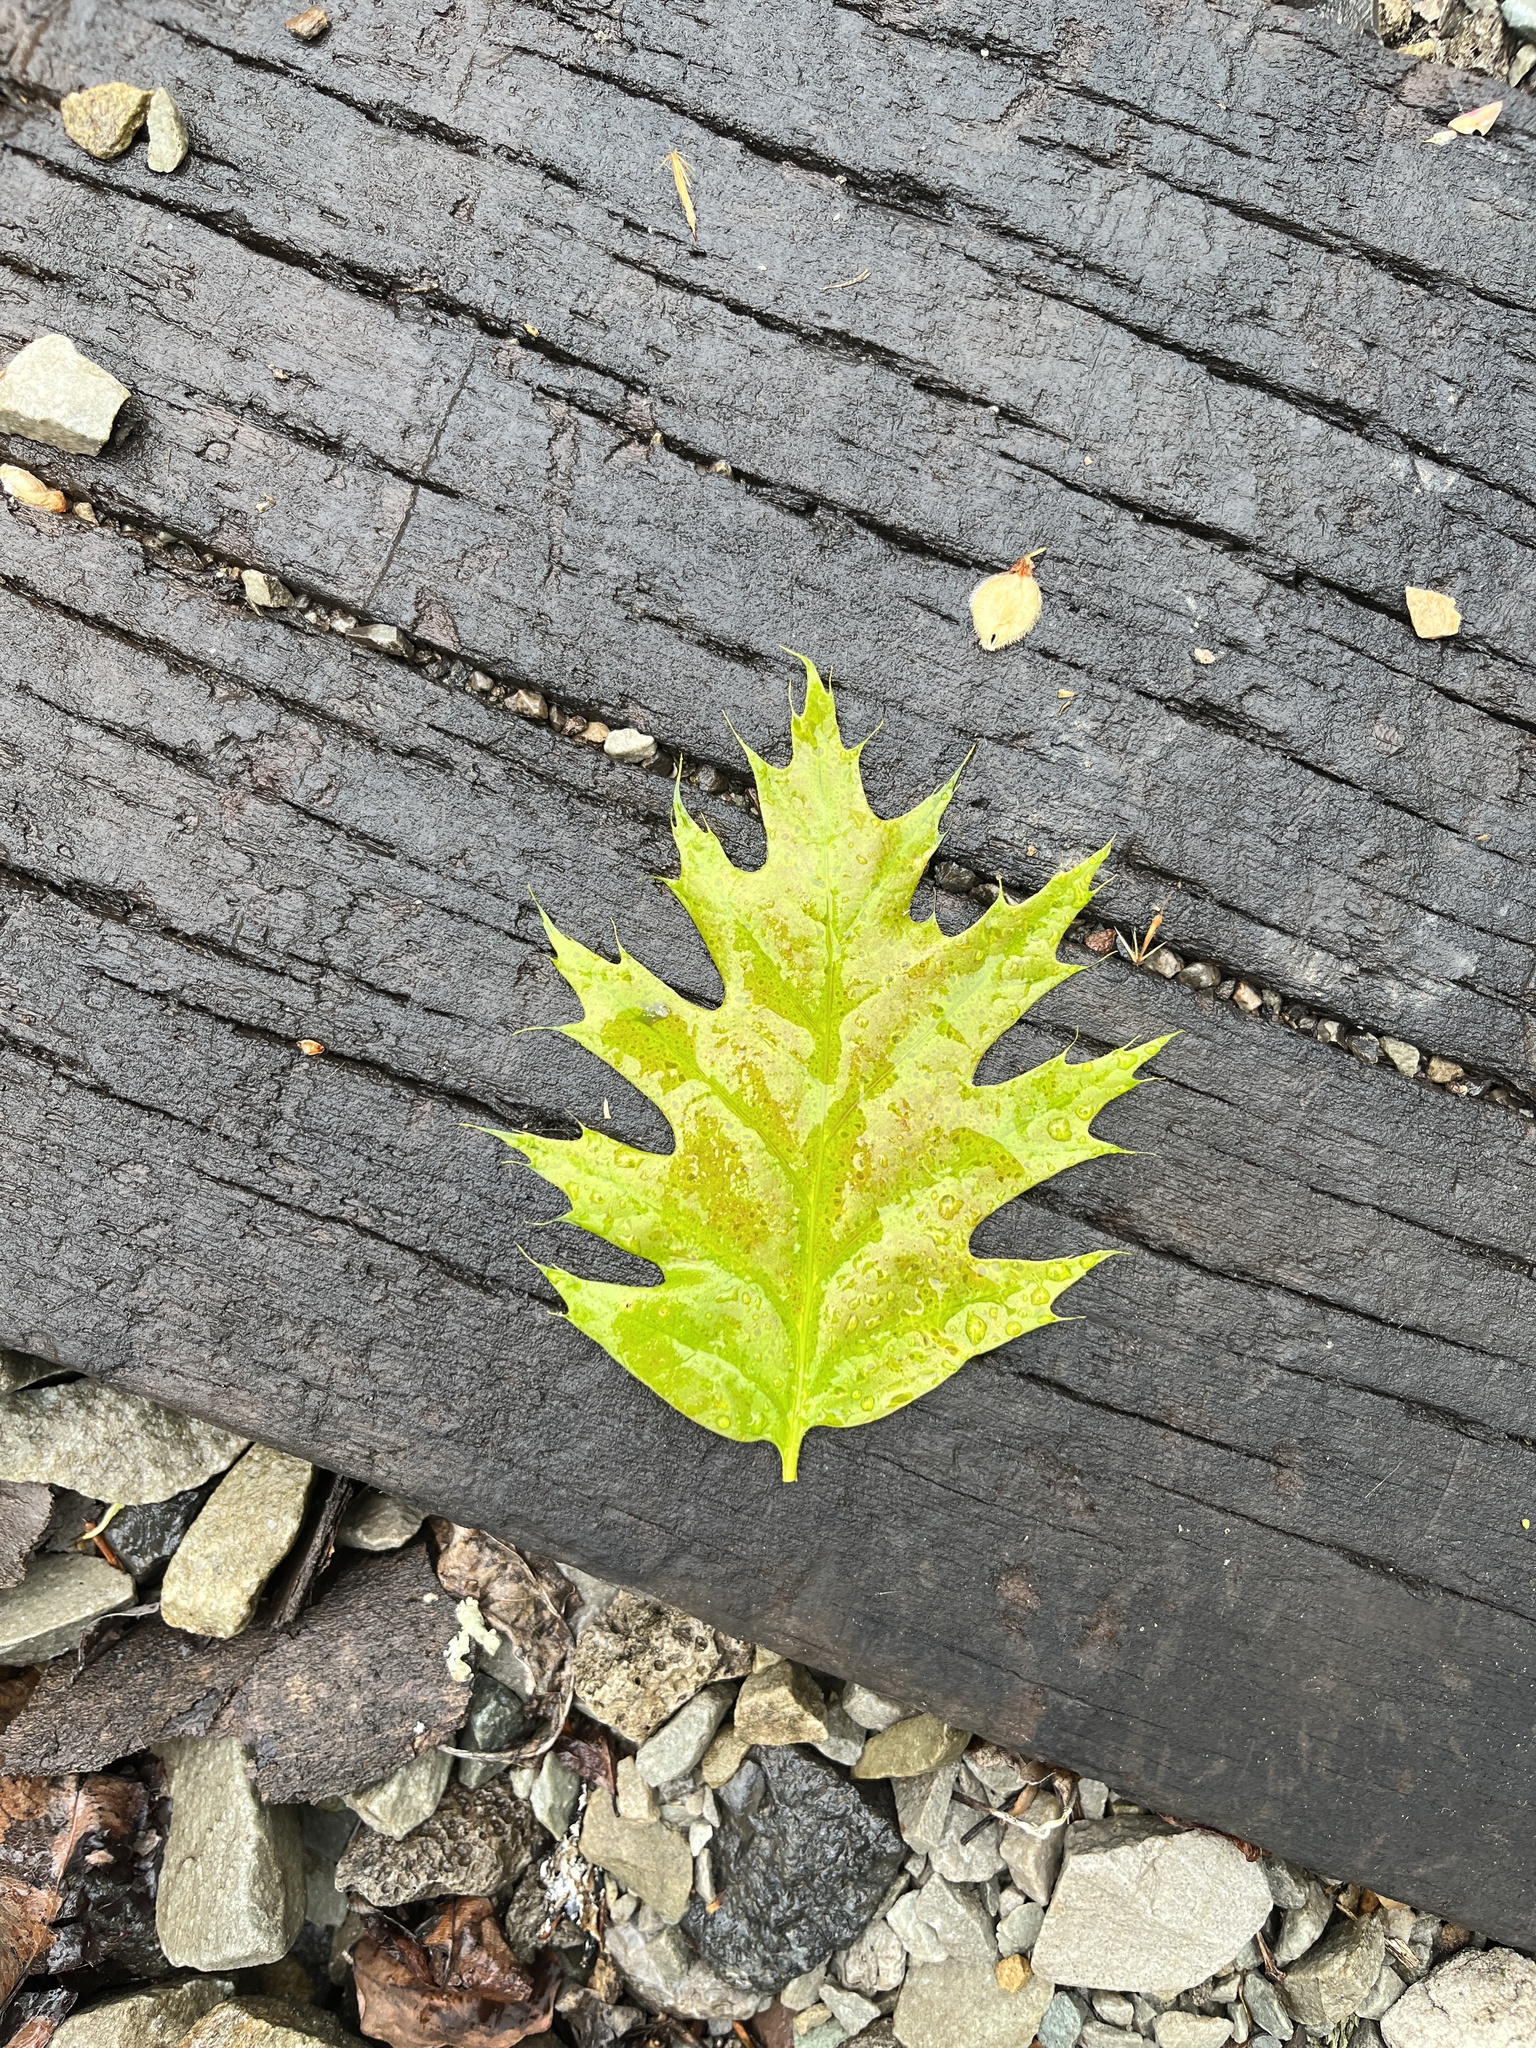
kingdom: Plantae
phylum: Tracheophyta
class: Magnoliopsida
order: Fagales
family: Fagaceae
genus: Quercus
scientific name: Quercus rubra
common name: Red oak
